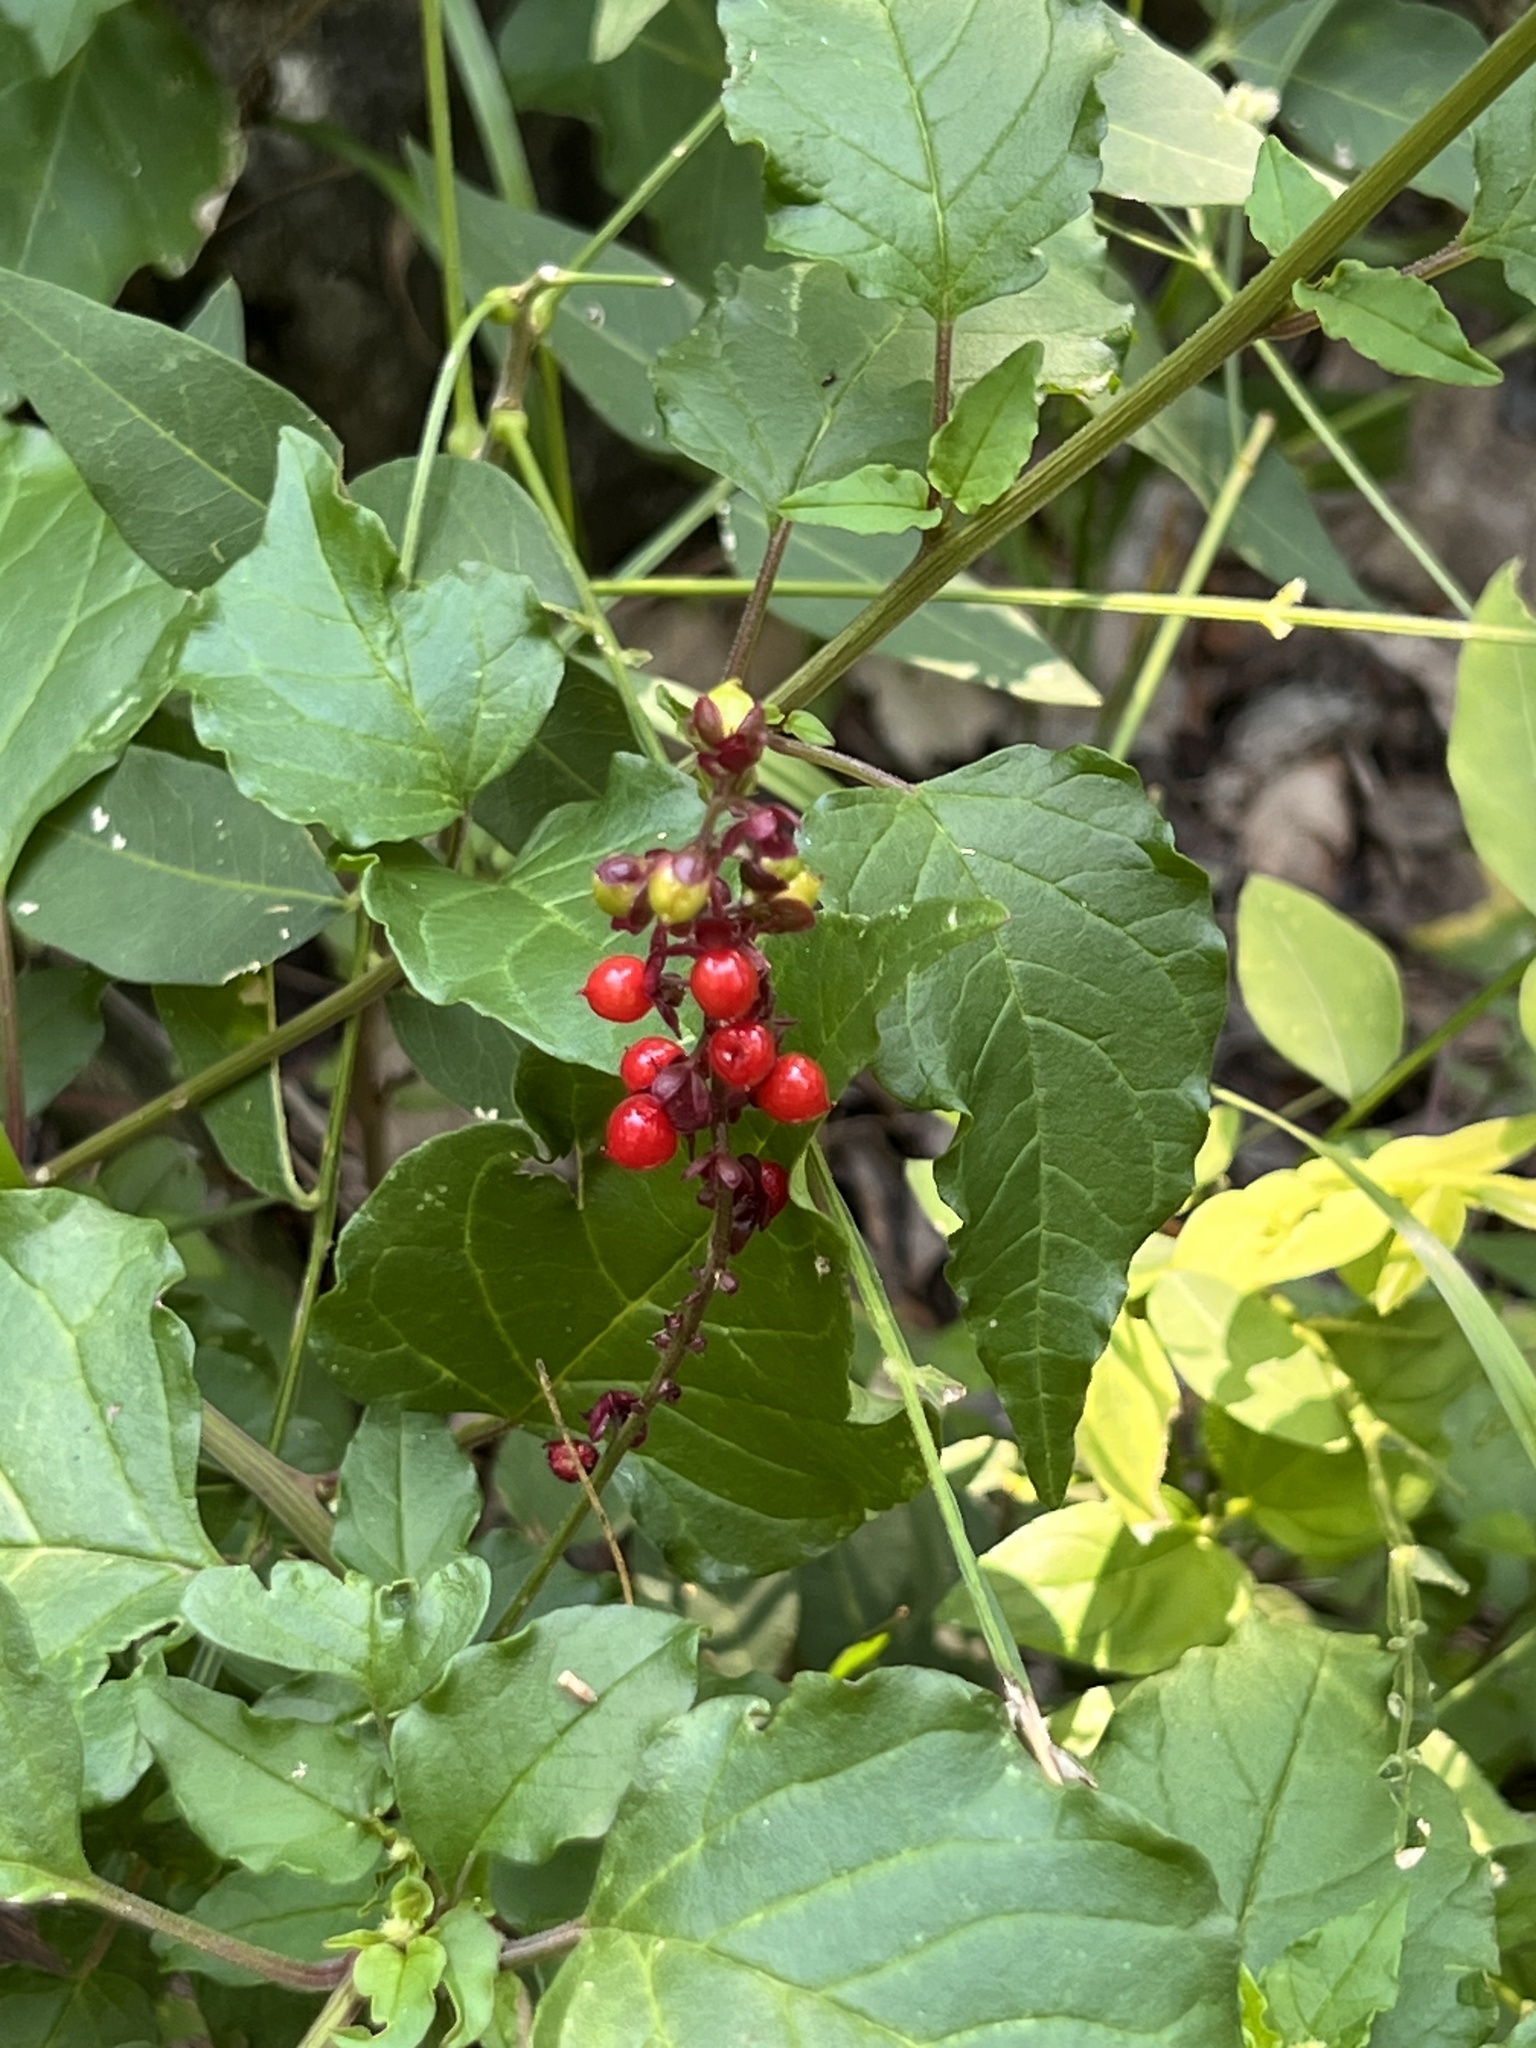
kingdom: Plantae
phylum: Tracheophyta
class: Magnoliopsida
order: Caryophyllales
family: Phytolaccaceae
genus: Rivina
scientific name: Rivina humilis
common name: Rougeplant
